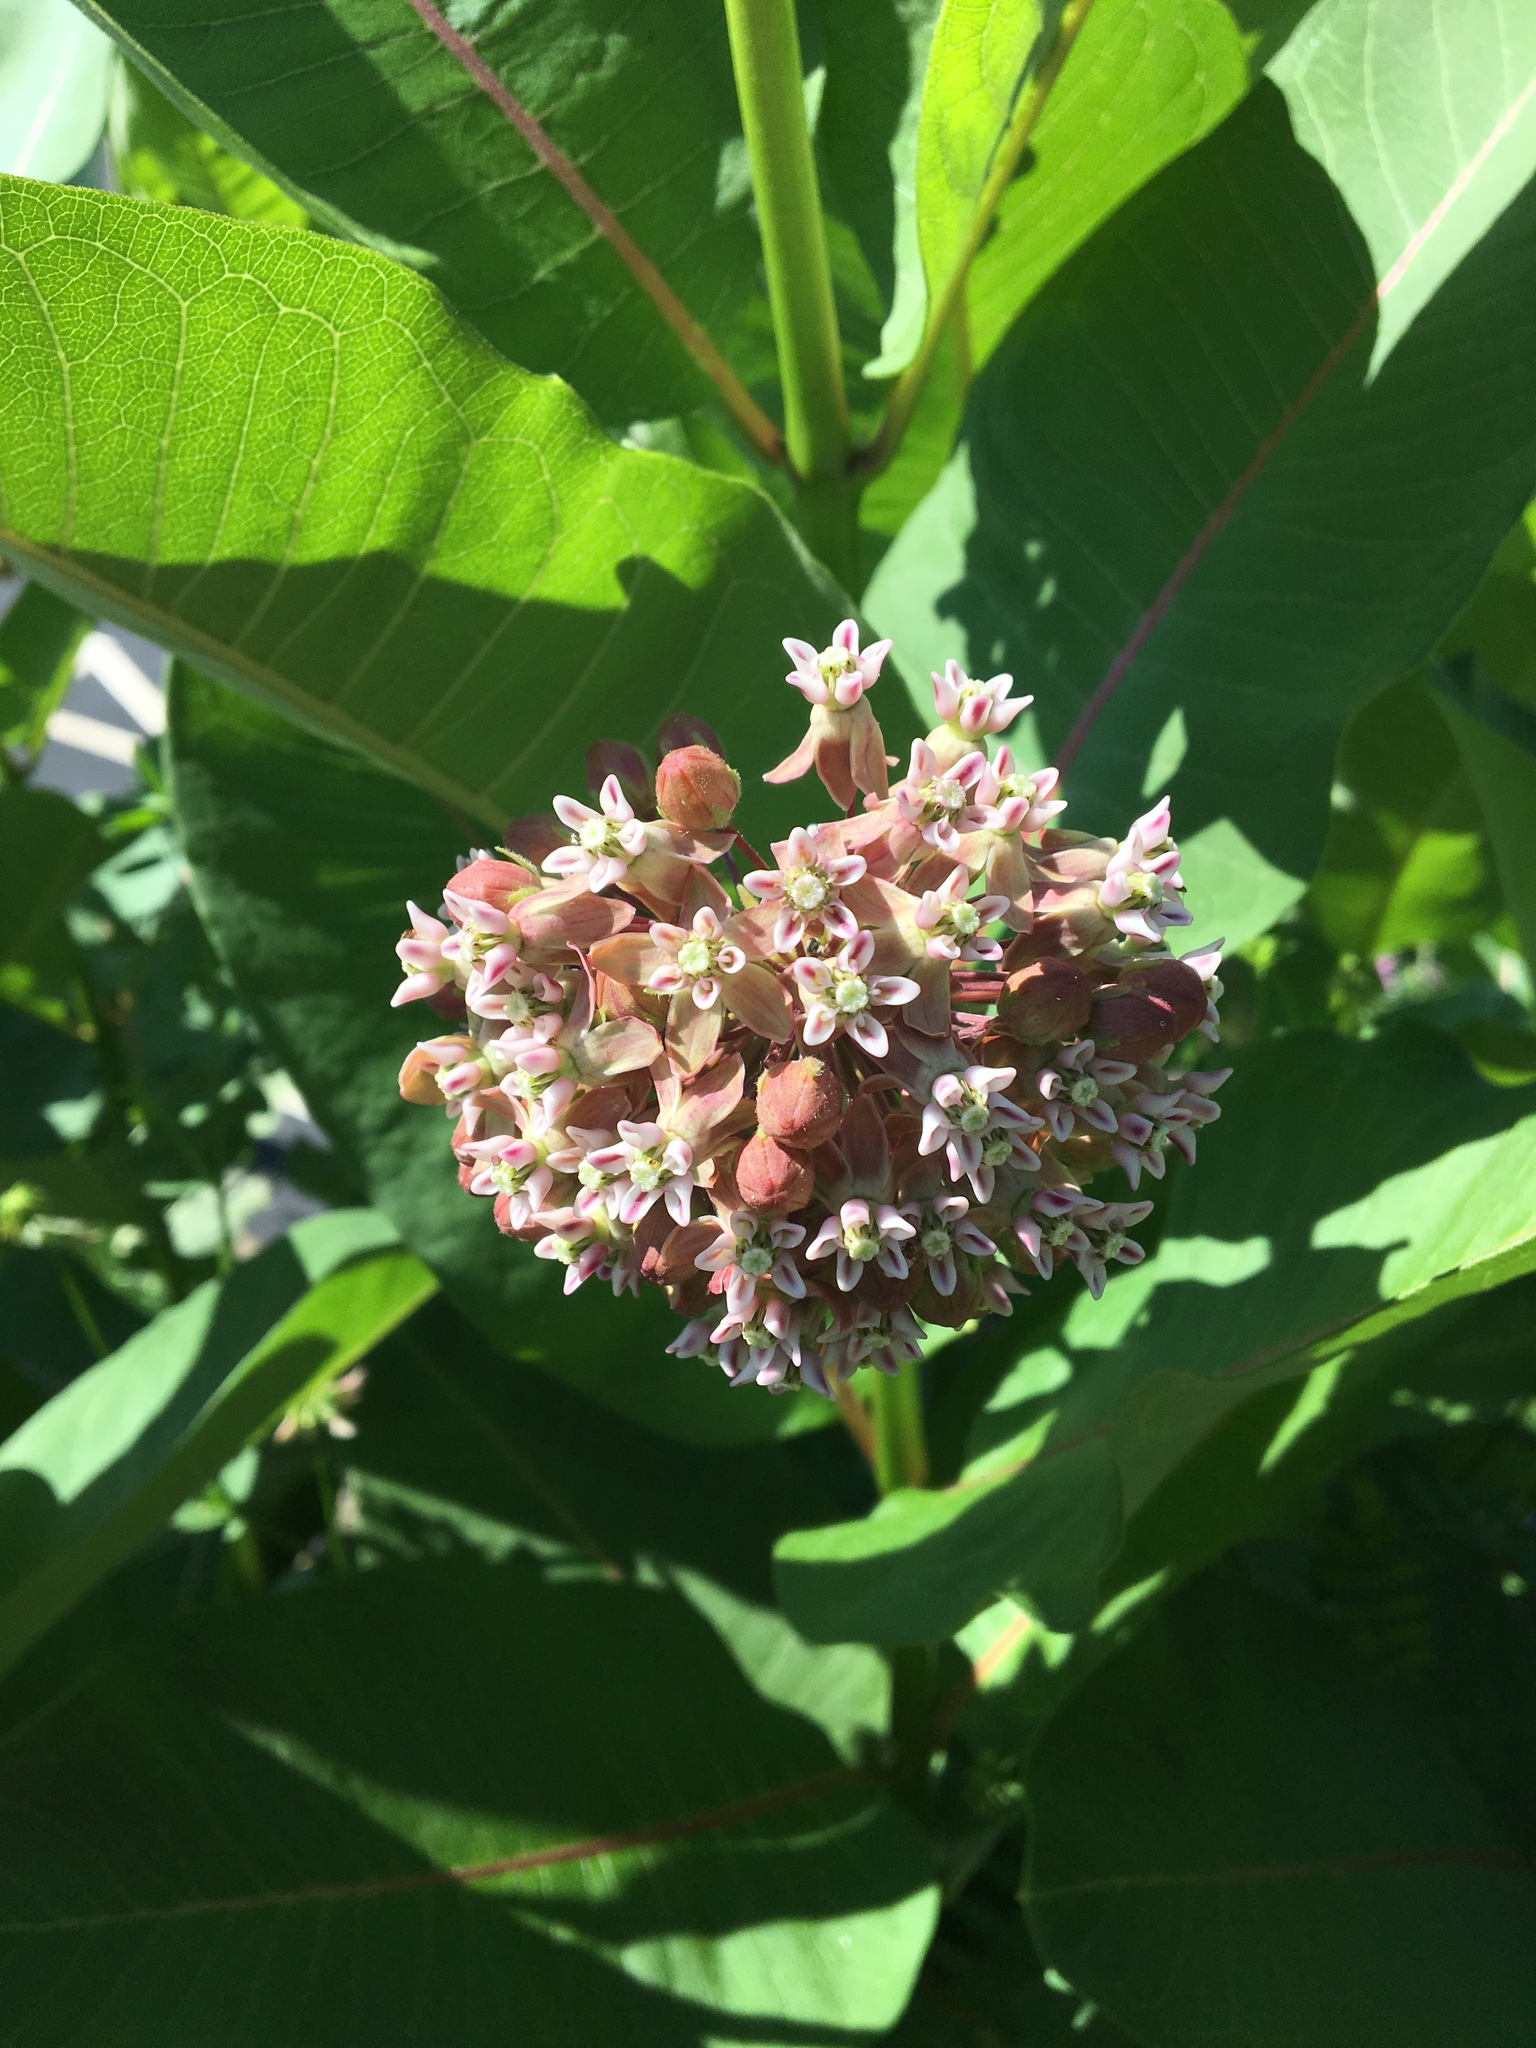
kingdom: Plantae
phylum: Tracheophyta
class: Magnoliopsida
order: Gentianales
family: Apocynaceae
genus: Asclepias
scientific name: Asclepias syriaca
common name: Common milkweed
